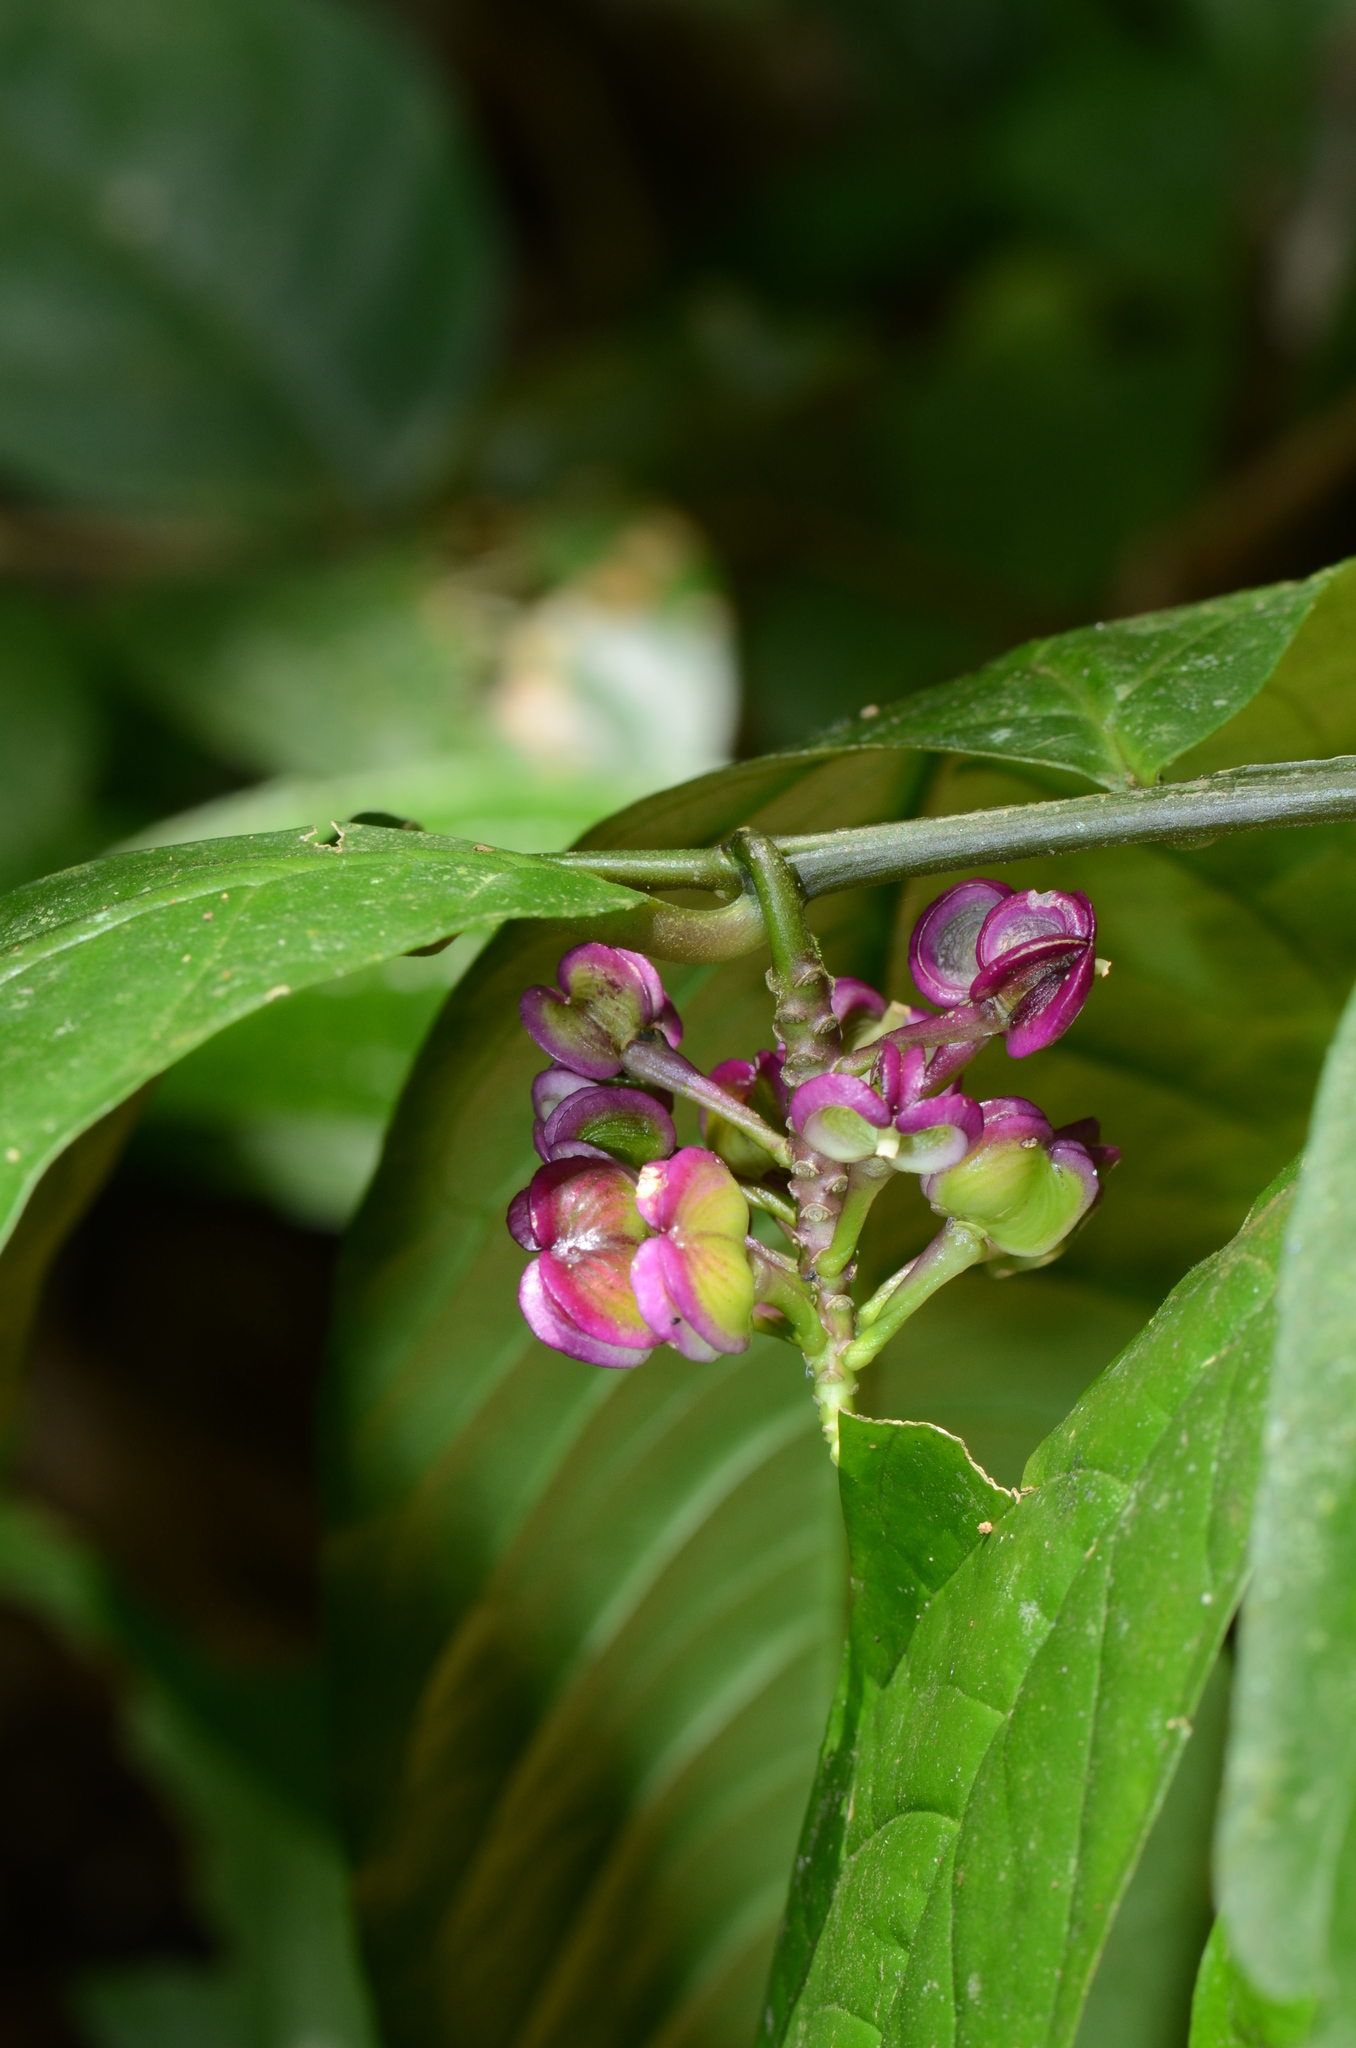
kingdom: Plantae
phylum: Tracheophyta
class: Magnoliopsida
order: Fabales
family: Polygalaceae
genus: Polygala
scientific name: Polygala venenosa
